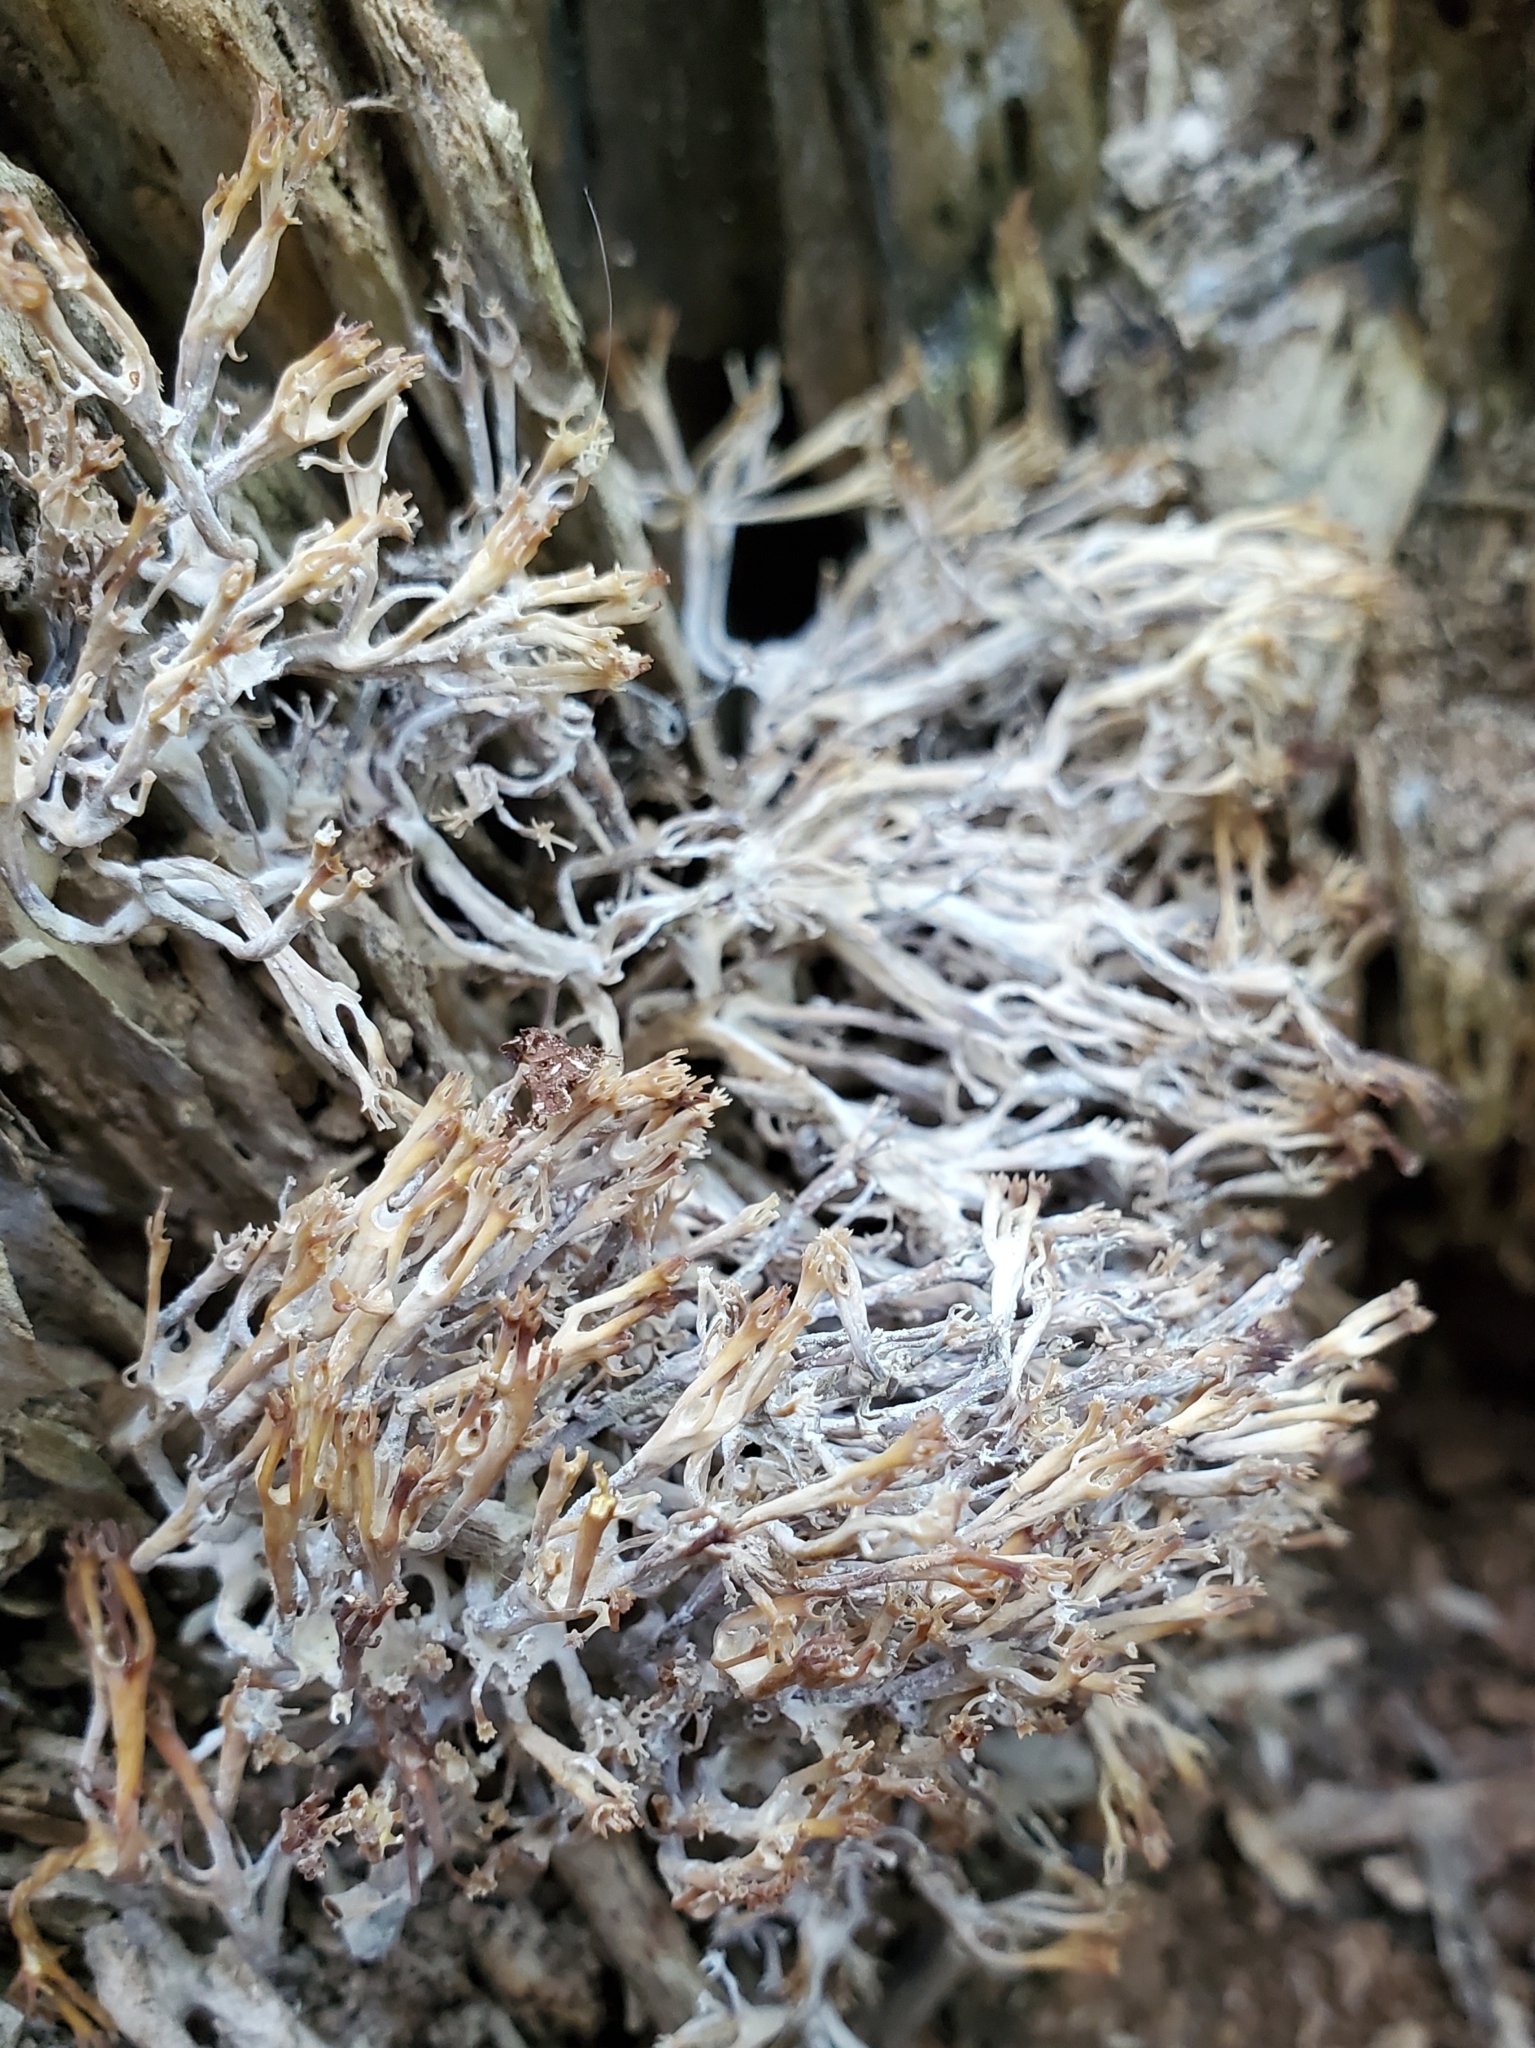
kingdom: Fungi
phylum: Basidiomycota
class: Agaricomycetes
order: Russulales
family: Auriscalpiaceae
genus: Artomyces
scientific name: Artomyces pyxidatus
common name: Crown-tipped coral fungus
